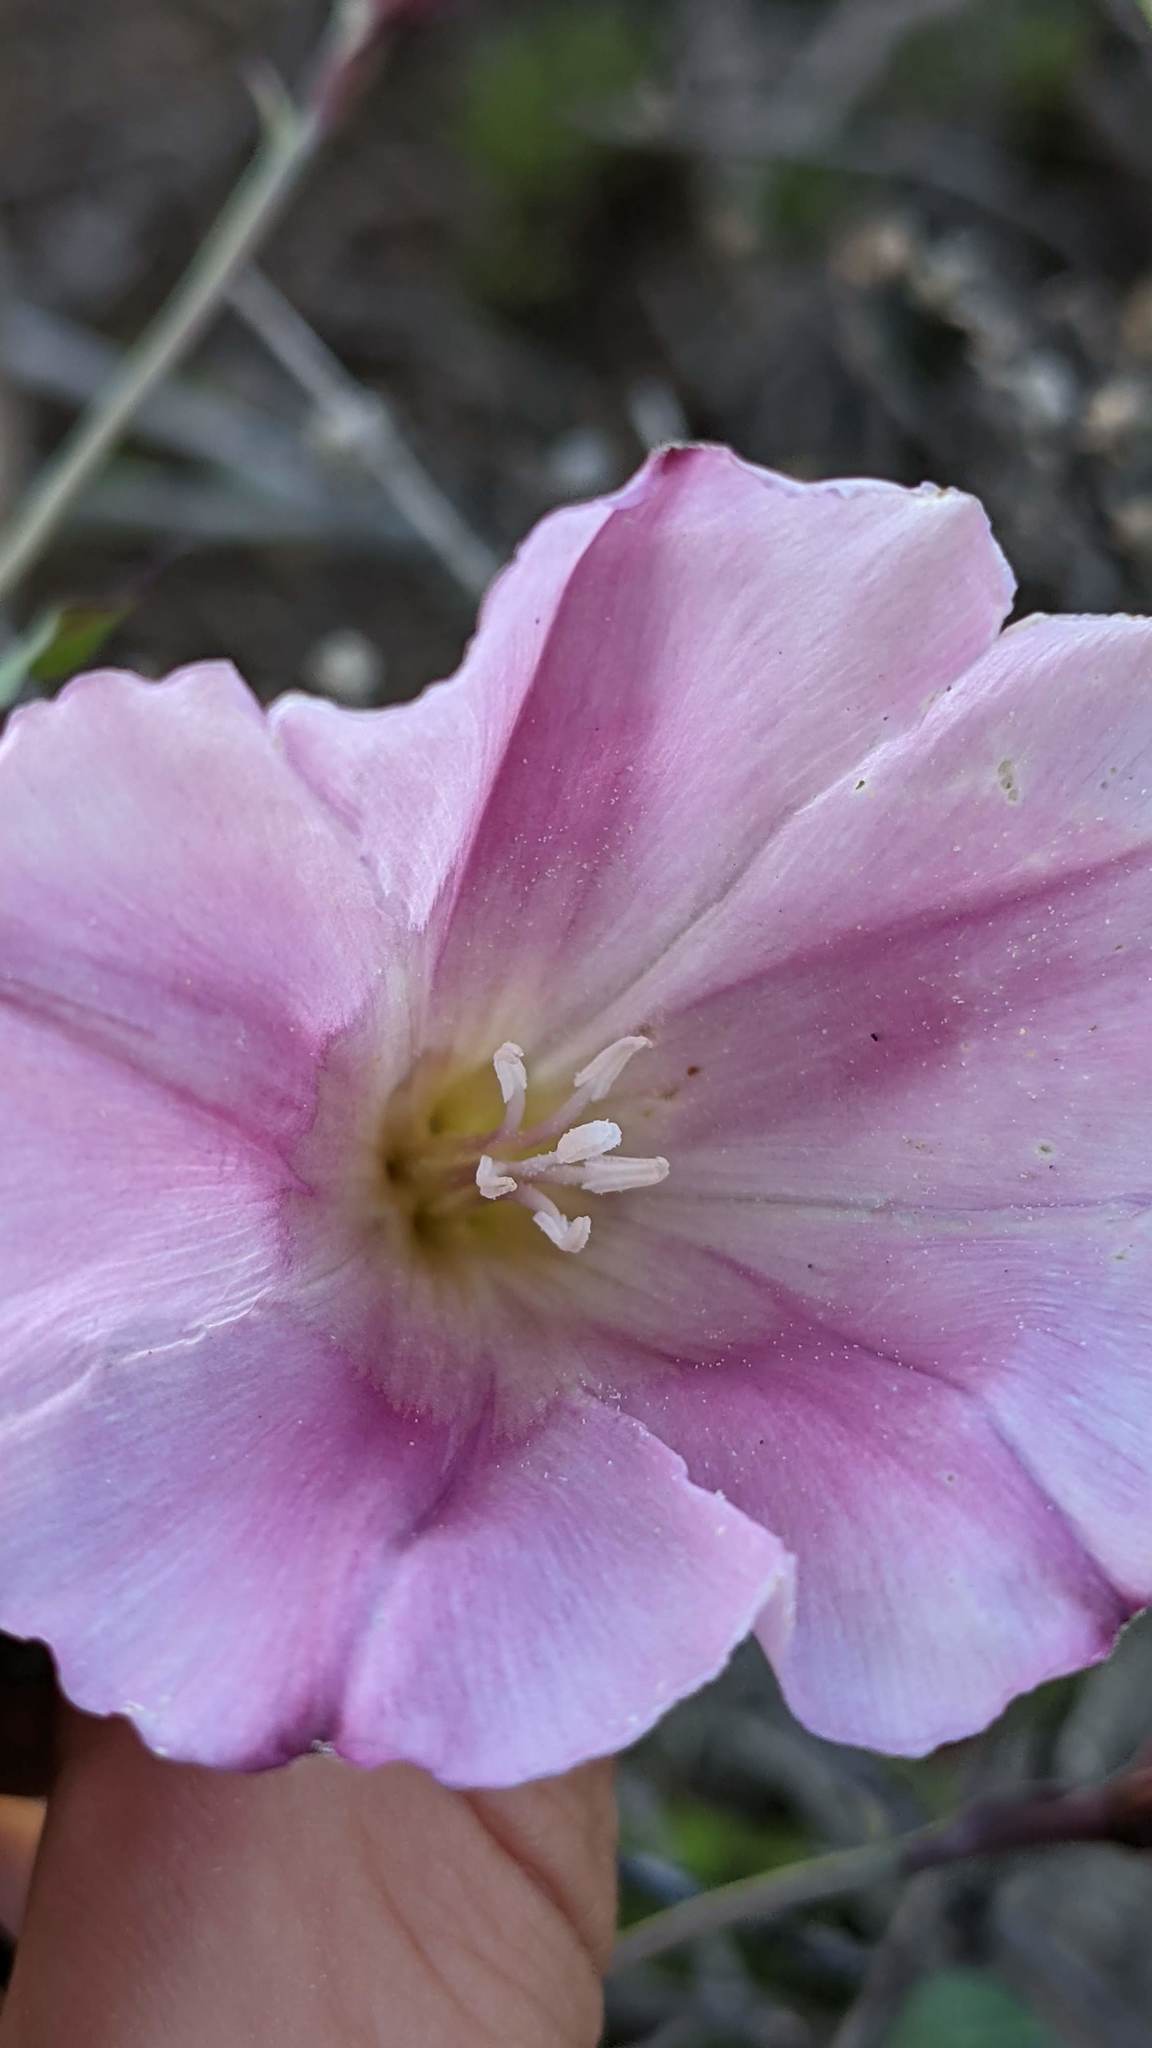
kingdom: Plantae
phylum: Tracheophyta
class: Magnoliopsida
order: Solanales
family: Convolvulaceae
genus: Calystegia
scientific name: Calystegia purpurata
